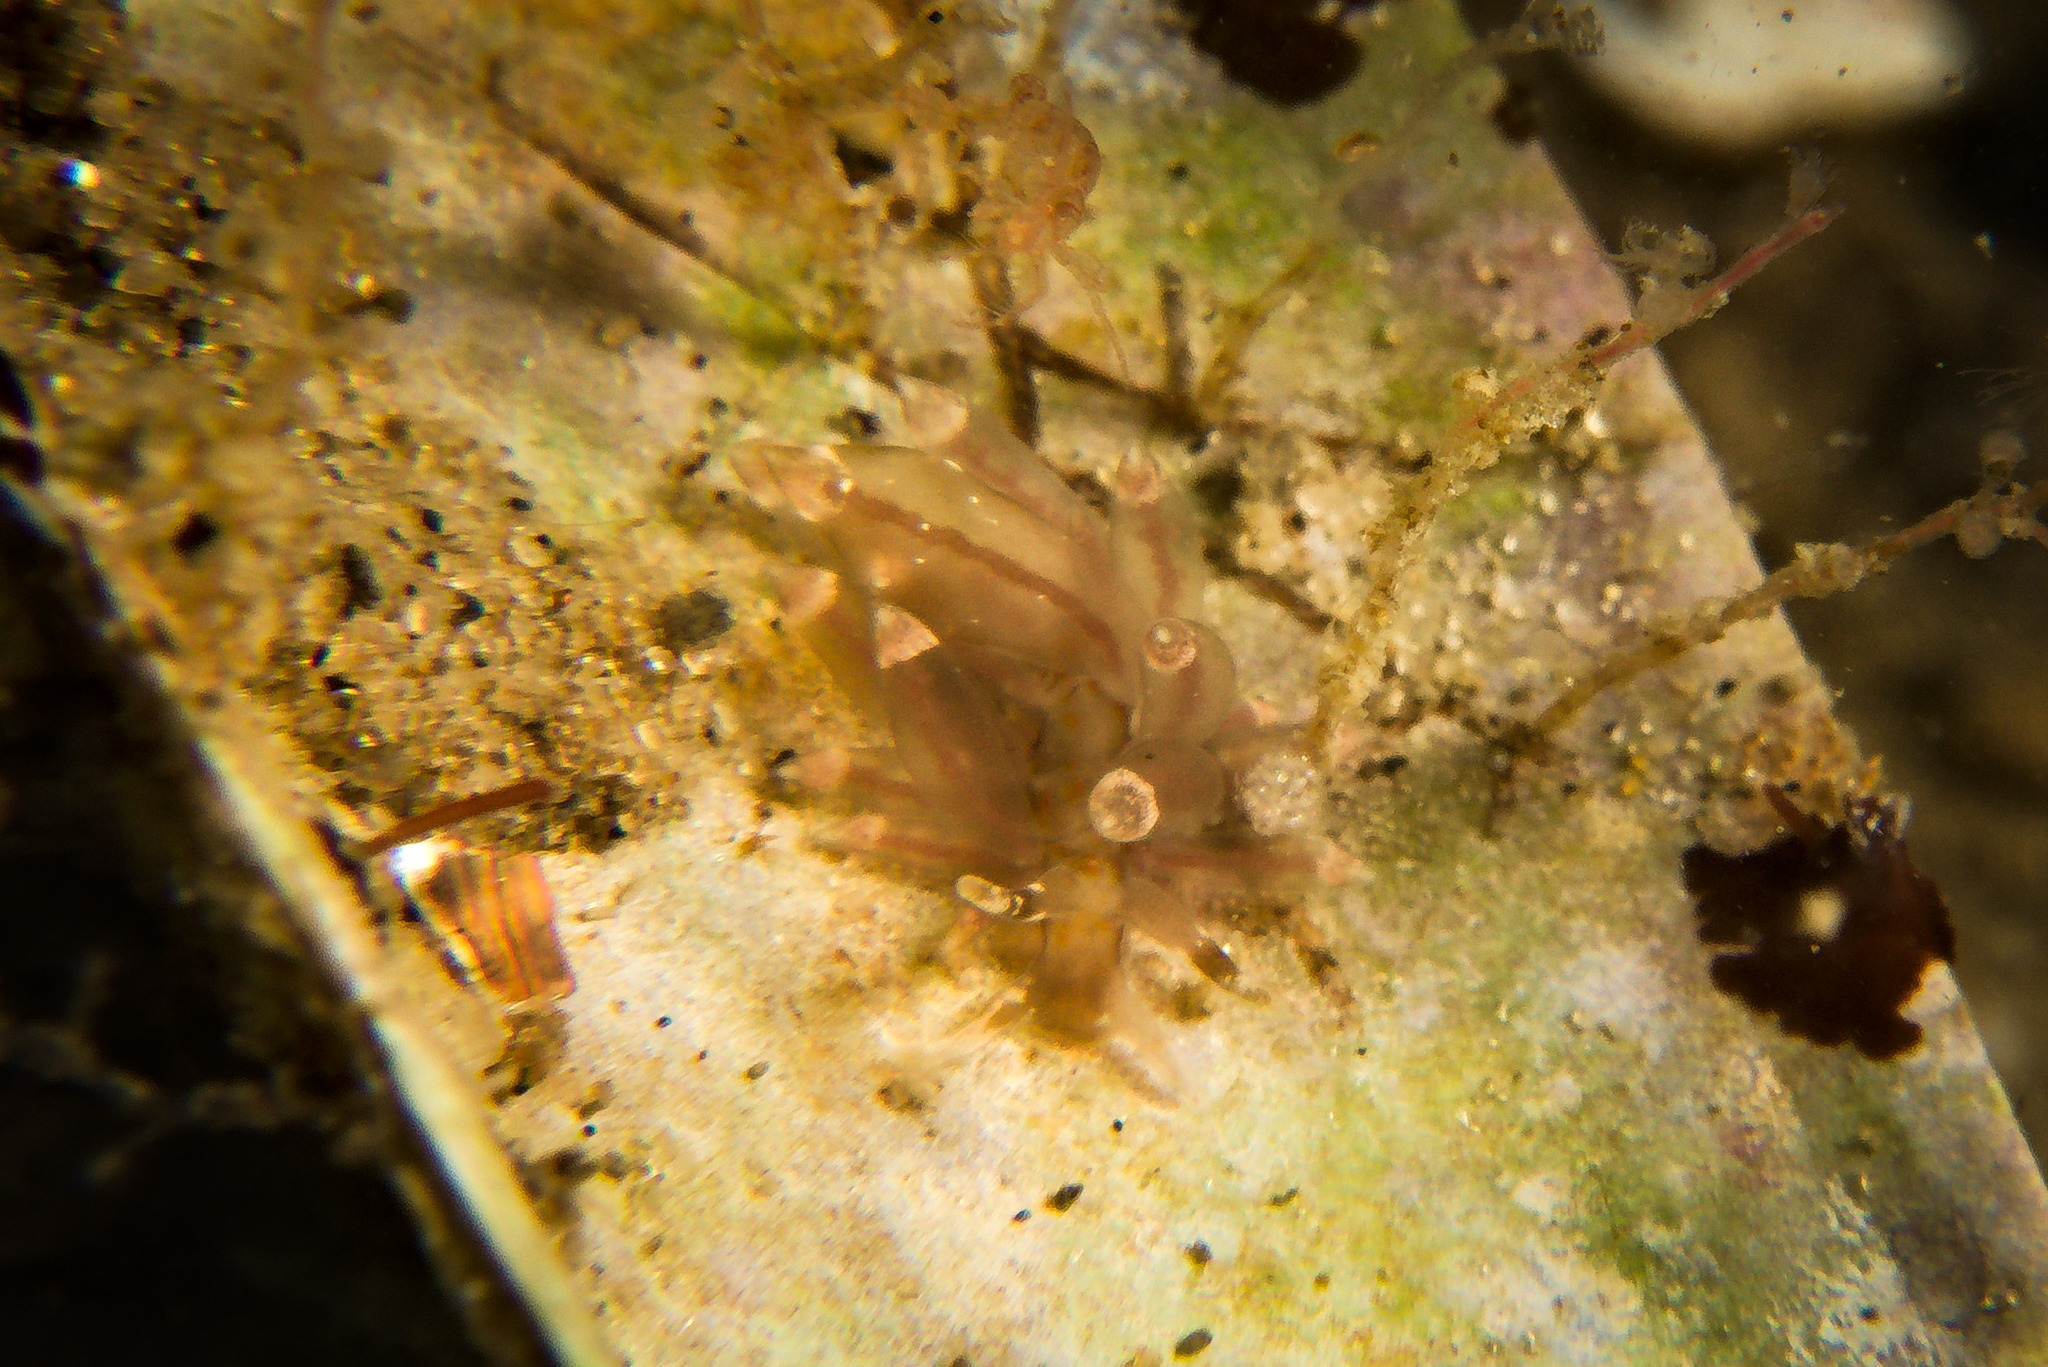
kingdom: Animalia
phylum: Mollusca
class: Gastropoda
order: Nudibranchia
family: Eubranchidae
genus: Amphorina
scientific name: Amphorina viriola
